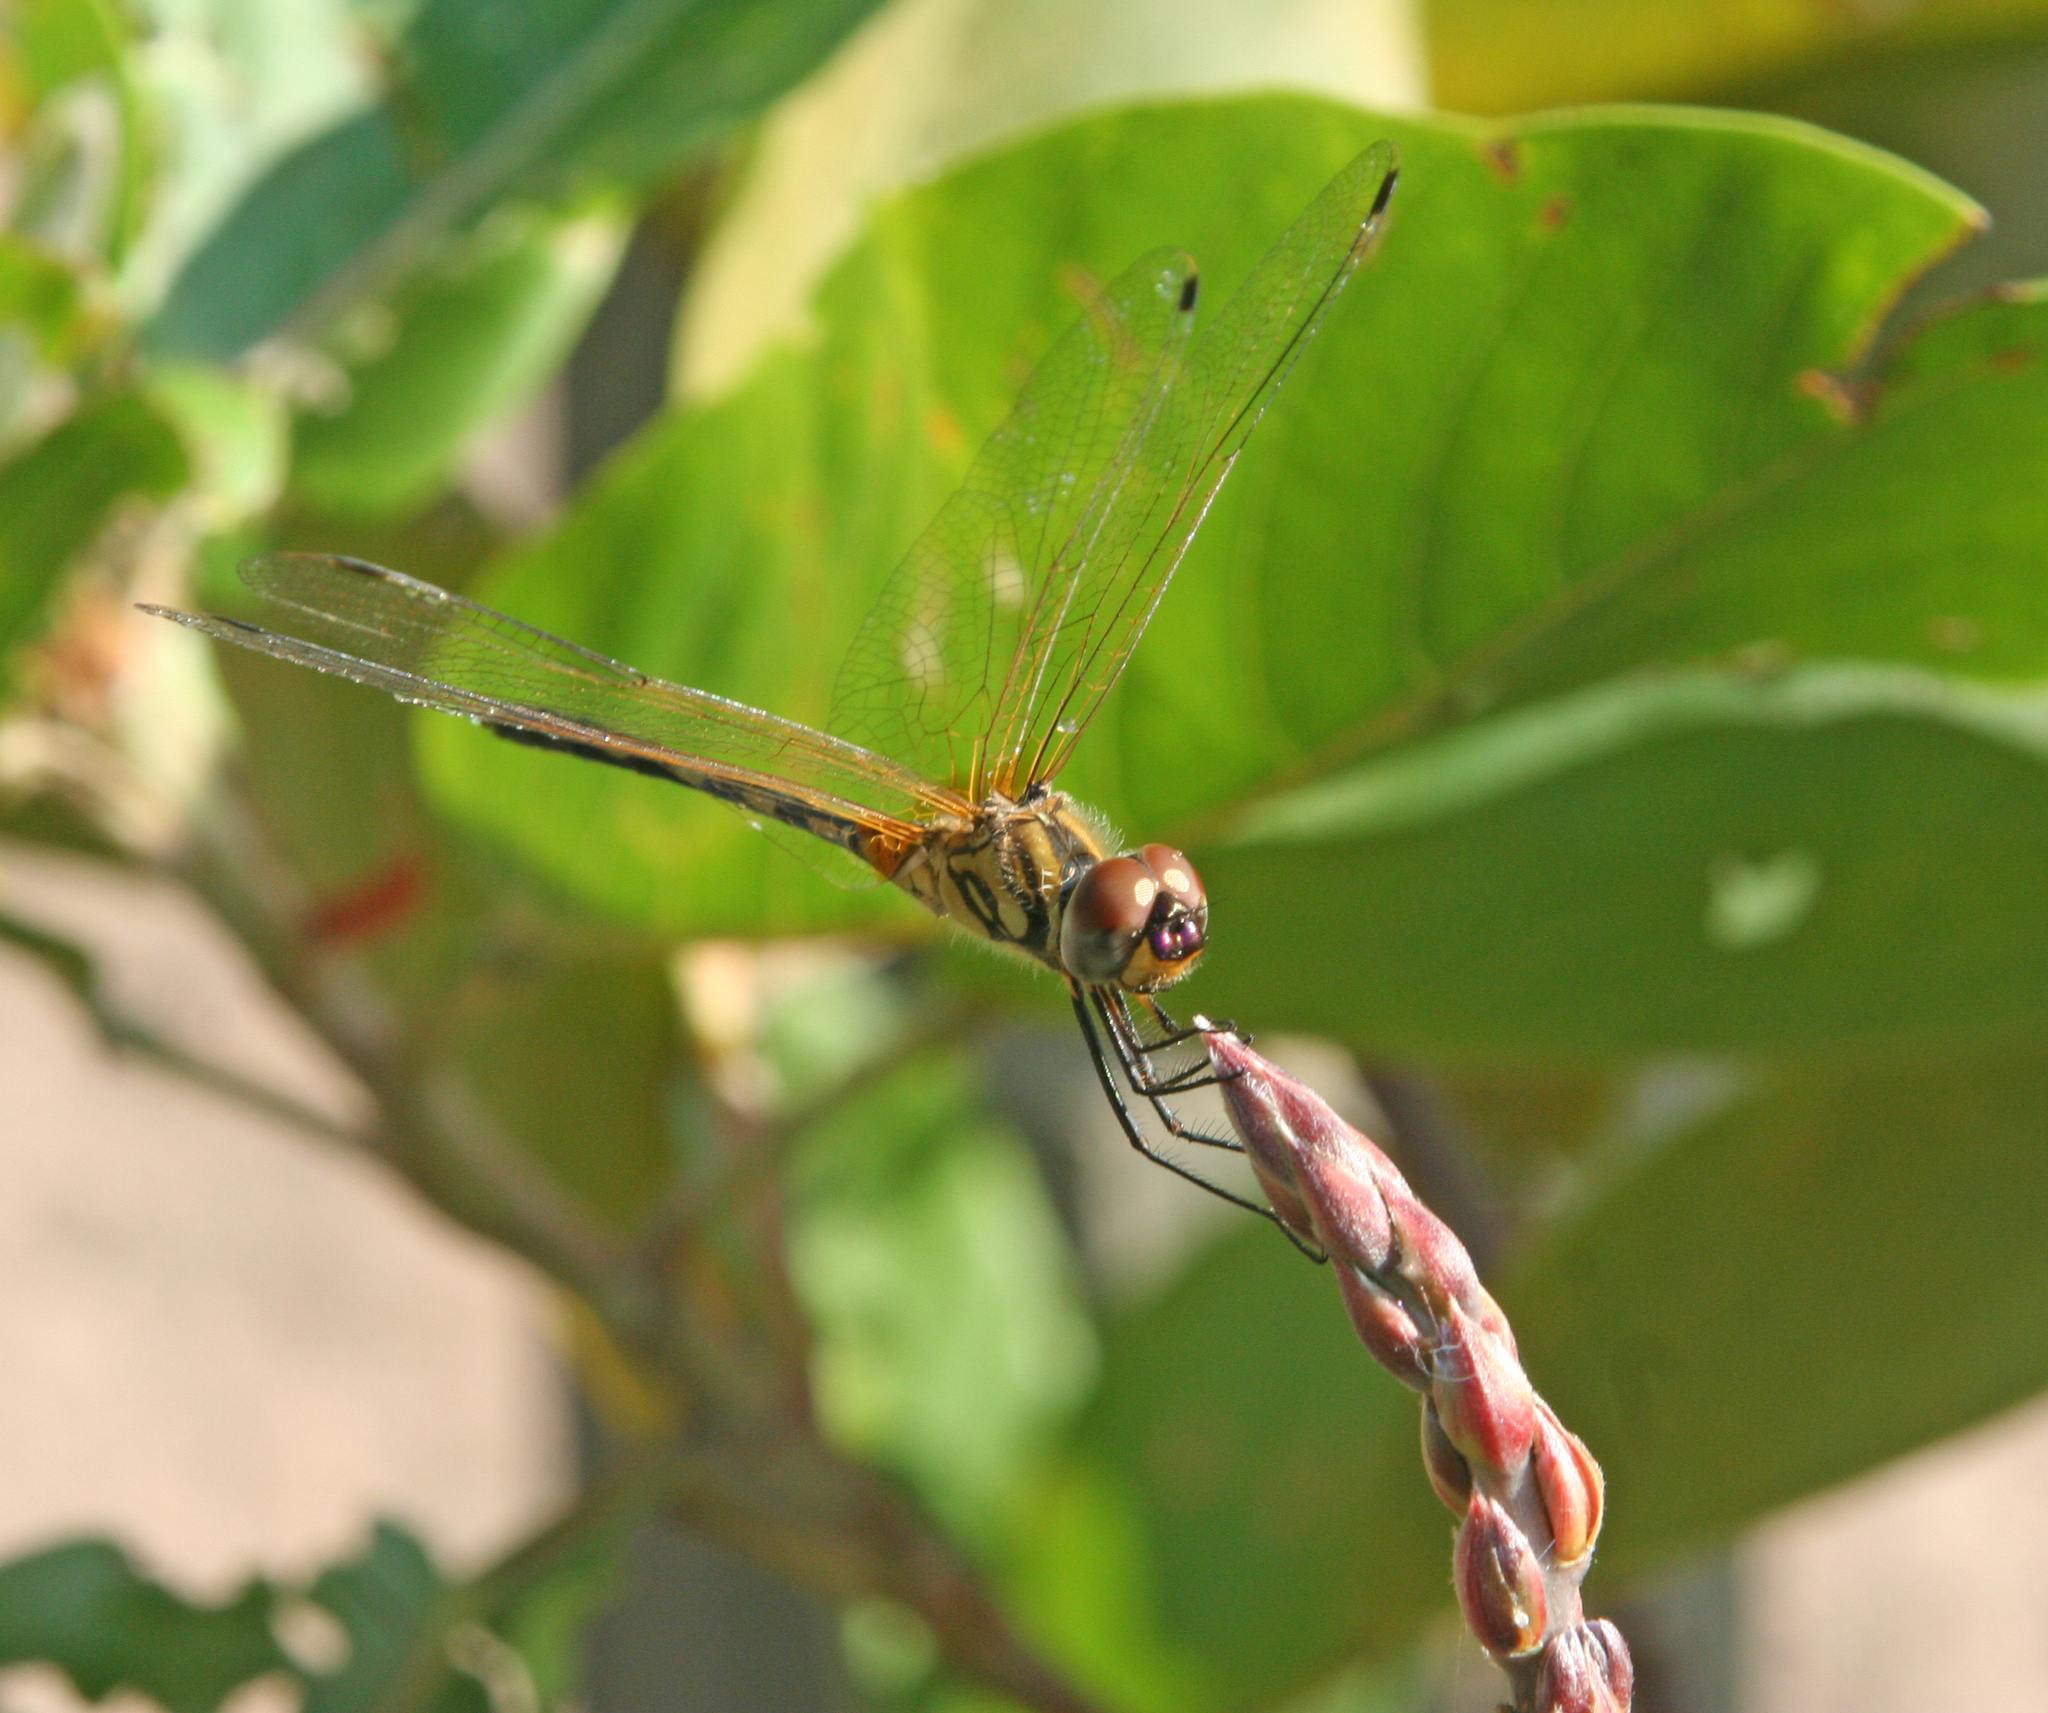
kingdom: Animalia
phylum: Arthropoda
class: Insecta
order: Odonata
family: Libellulidae
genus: Trithemis
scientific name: Trithemis pallidinervis
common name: Dancing dropwing
